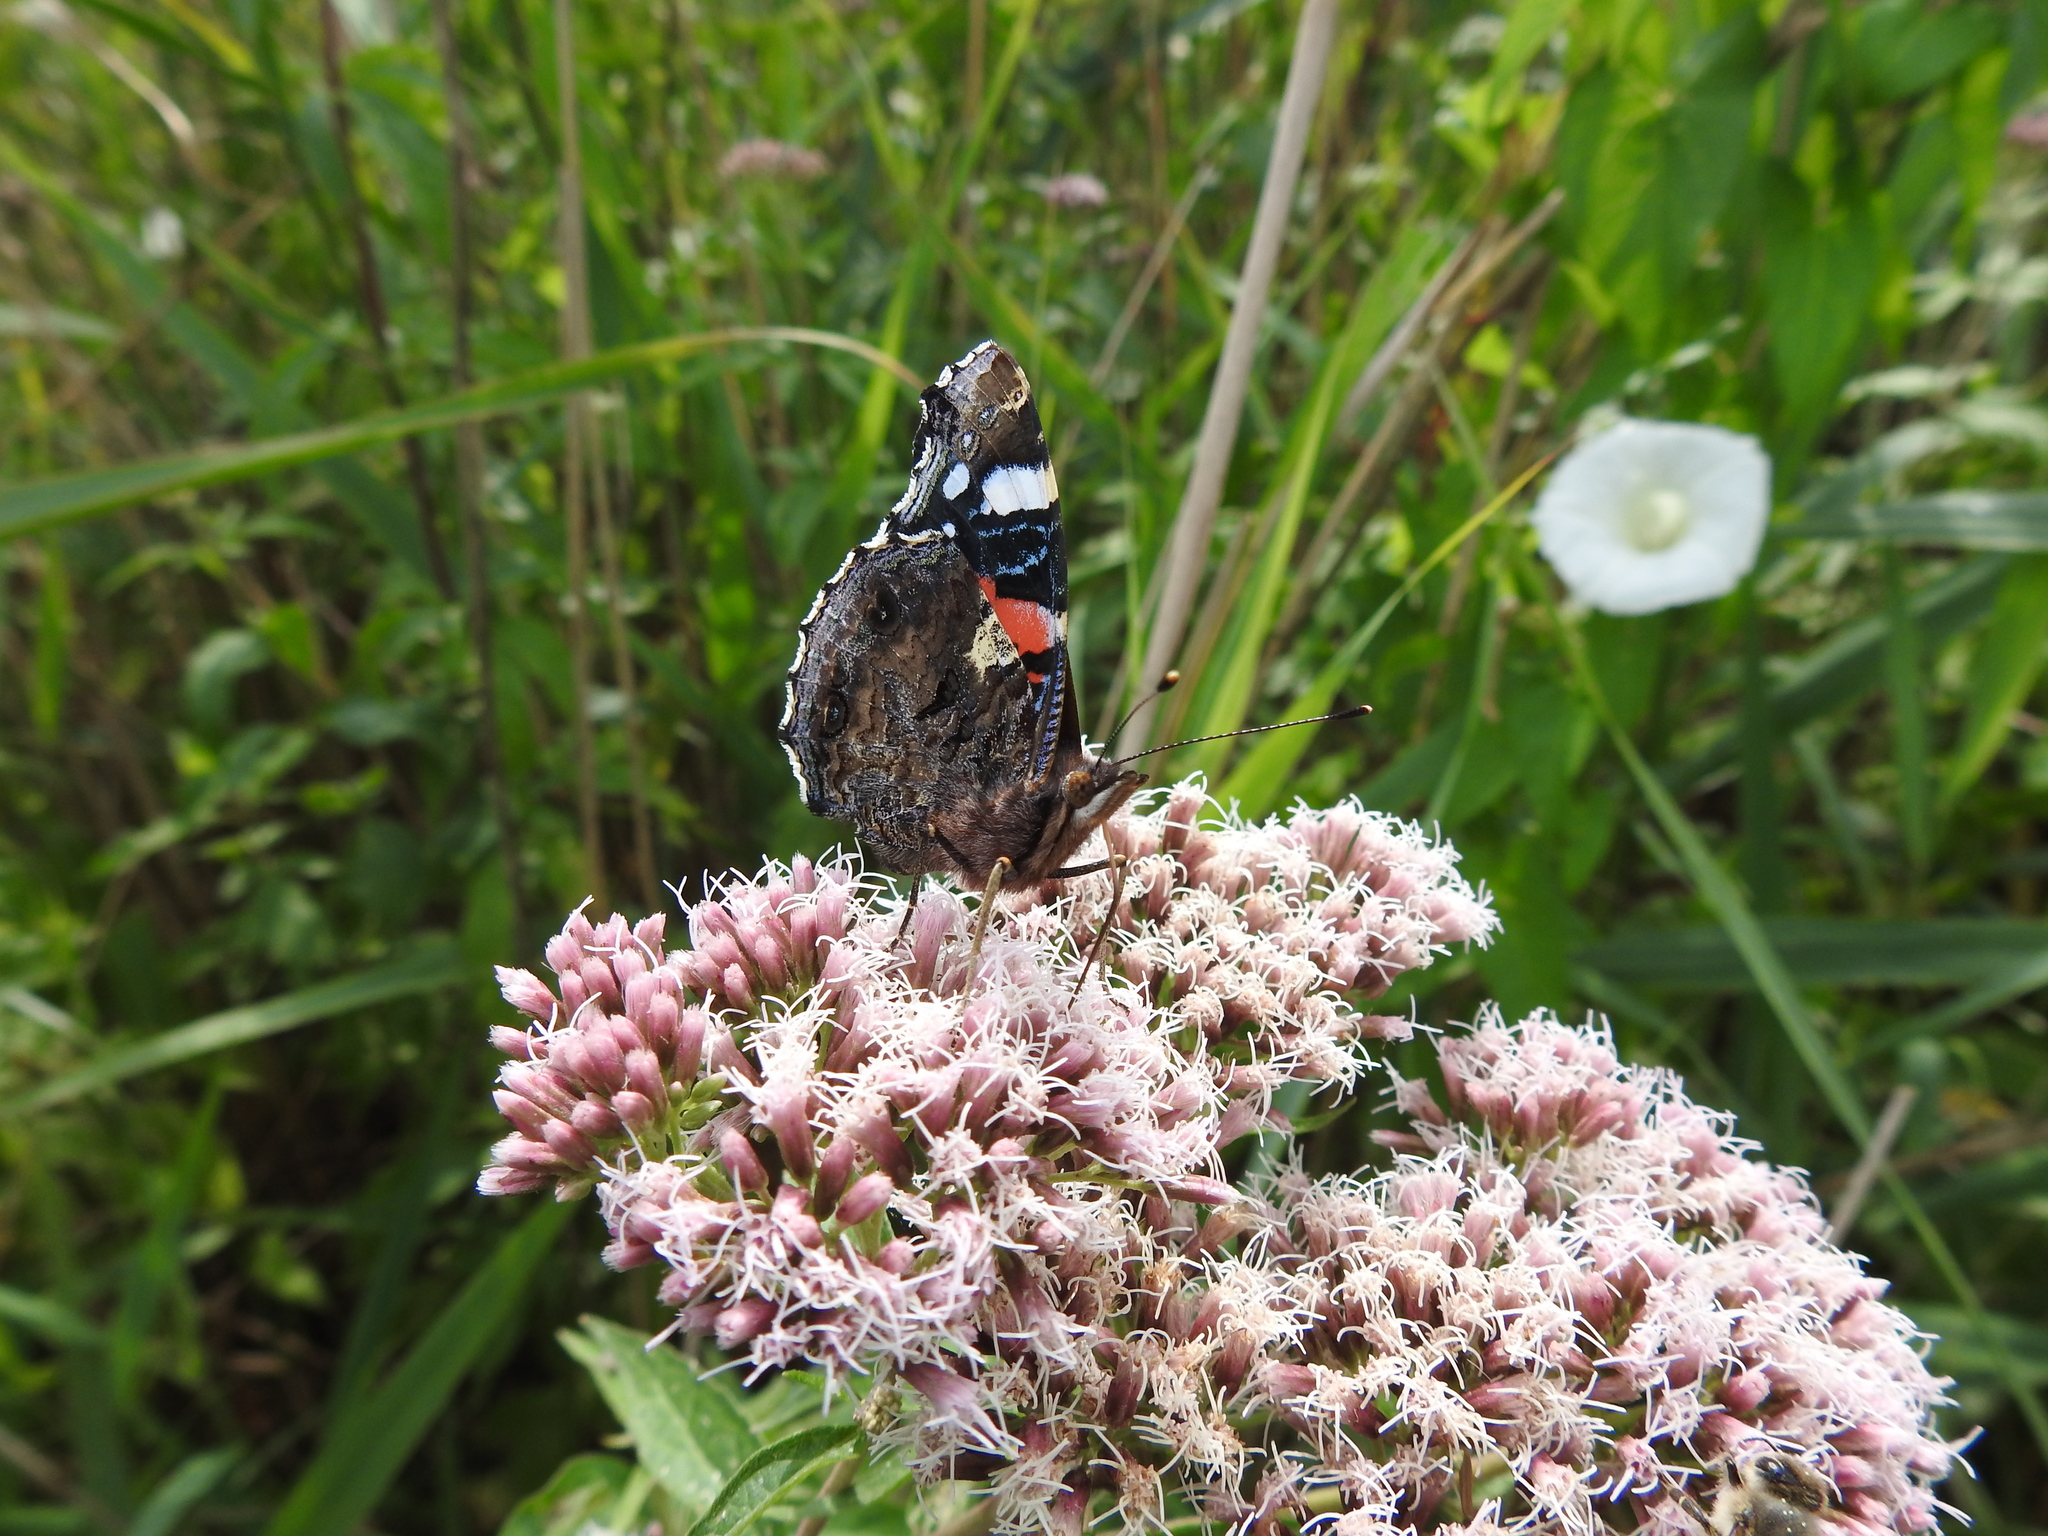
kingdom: Animalia
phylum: Arthropoda
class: Insecta
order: Lepidoptera
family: Nymphalidae
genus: Vanessa
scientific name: Vanessa atalanta
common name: Red admiral
